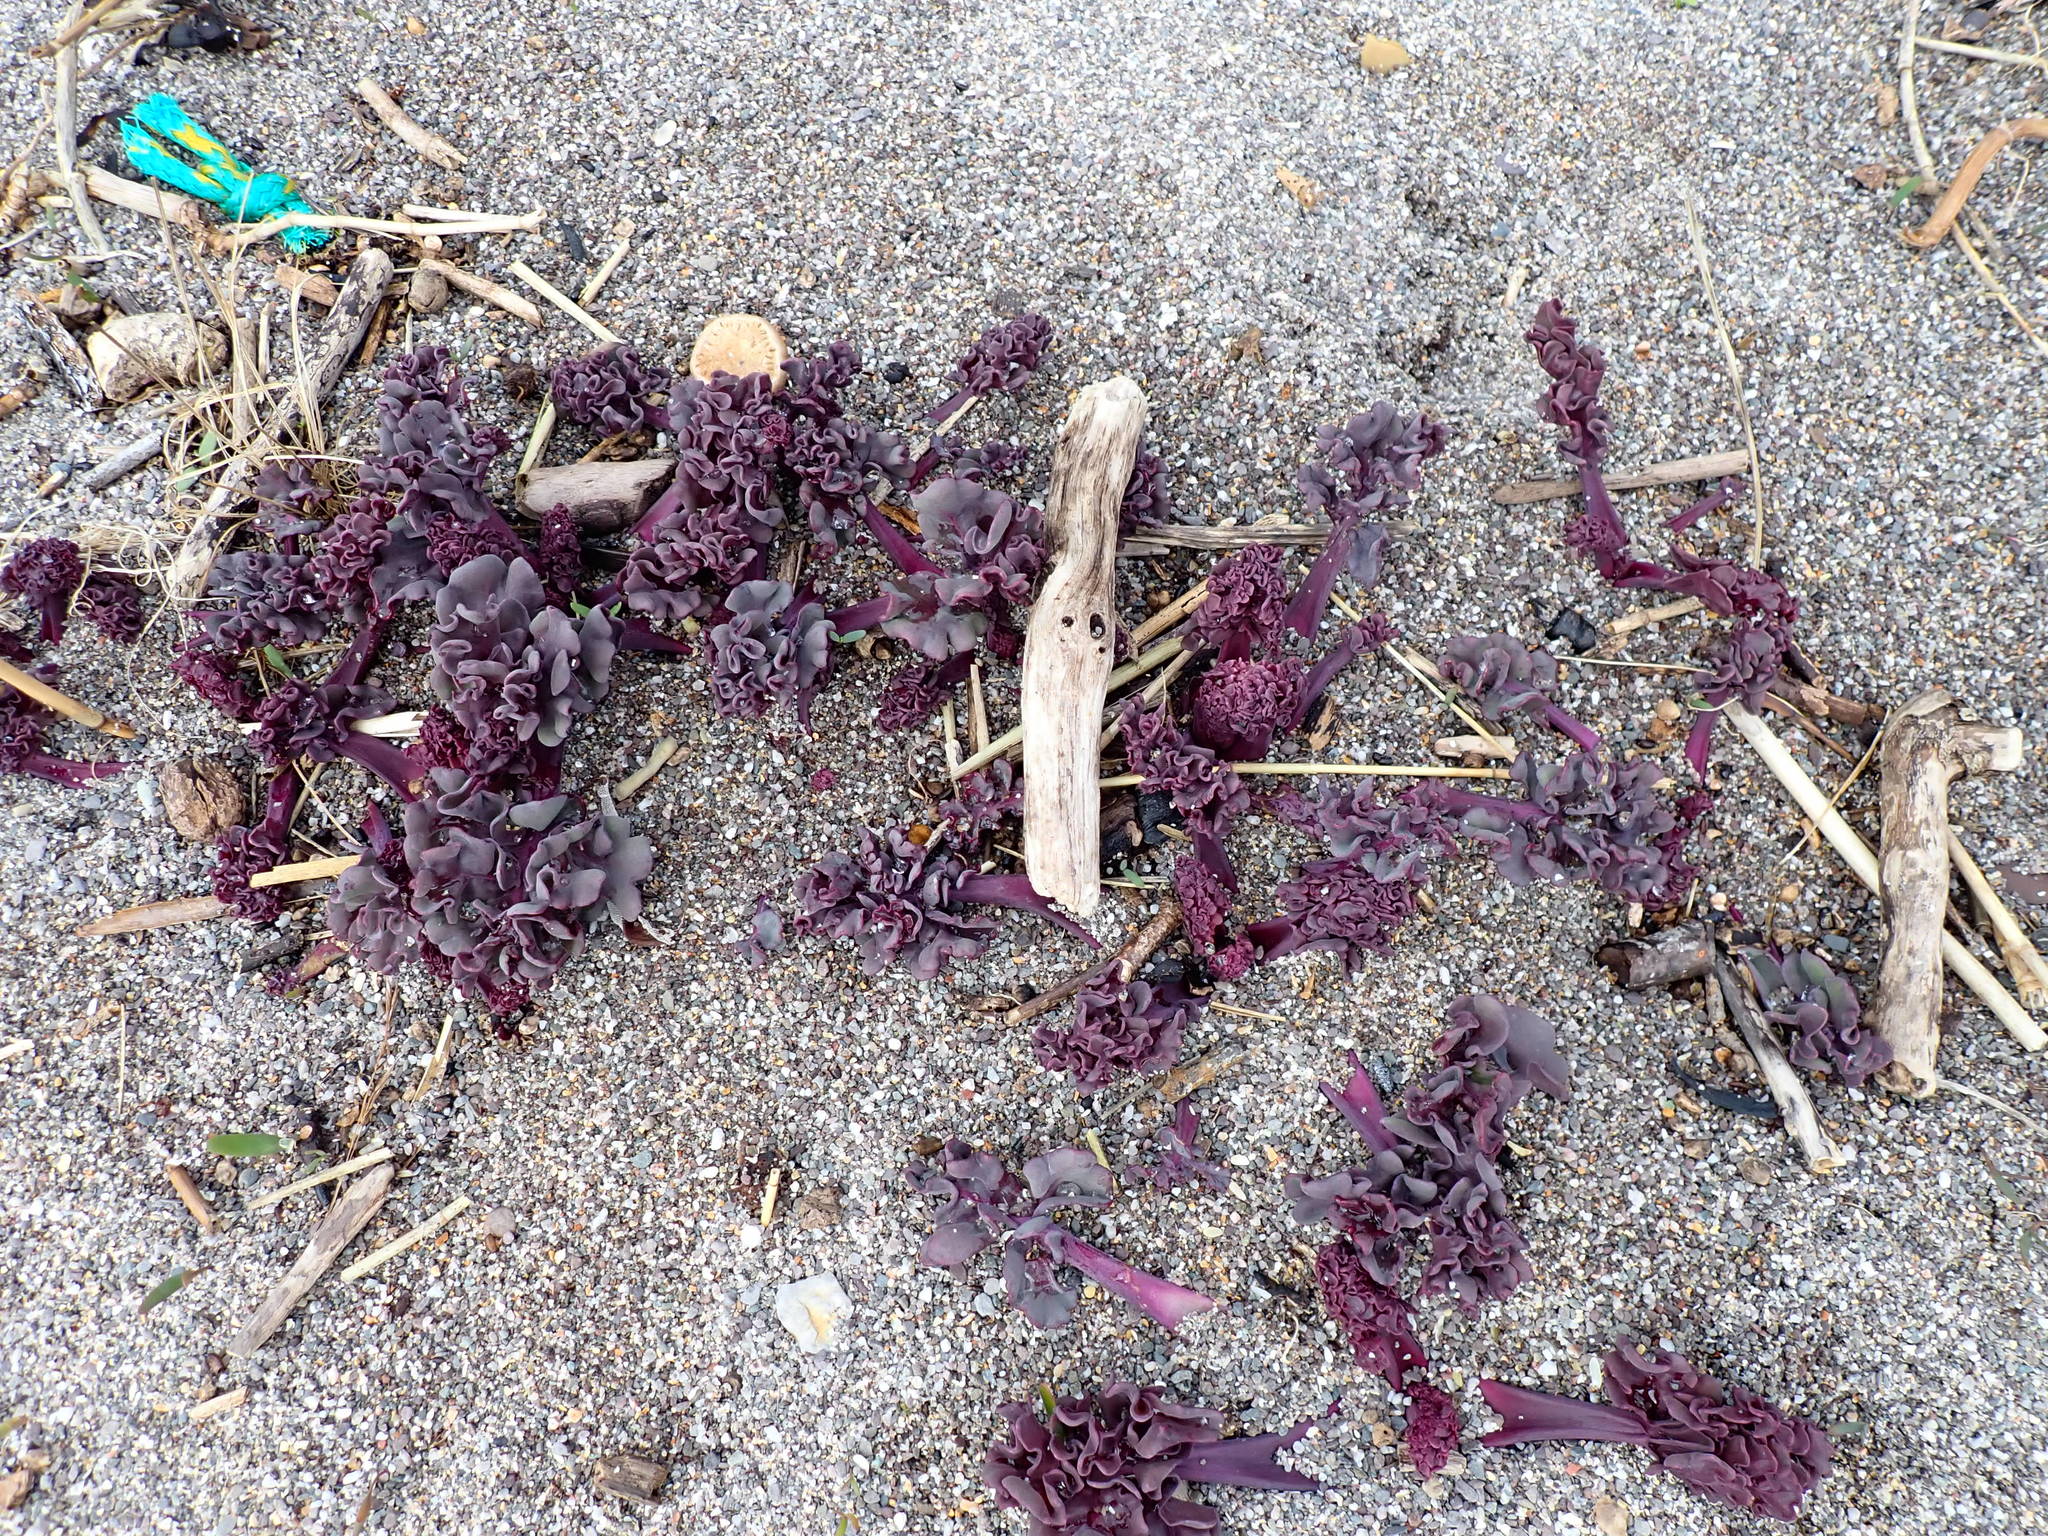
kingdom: Plantae
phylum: Tracheophyta
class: Magnoliopsida
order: Brassicales
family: Brassicaceae
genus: Crambe
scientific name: Crambe maritima
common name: Sea-kale
